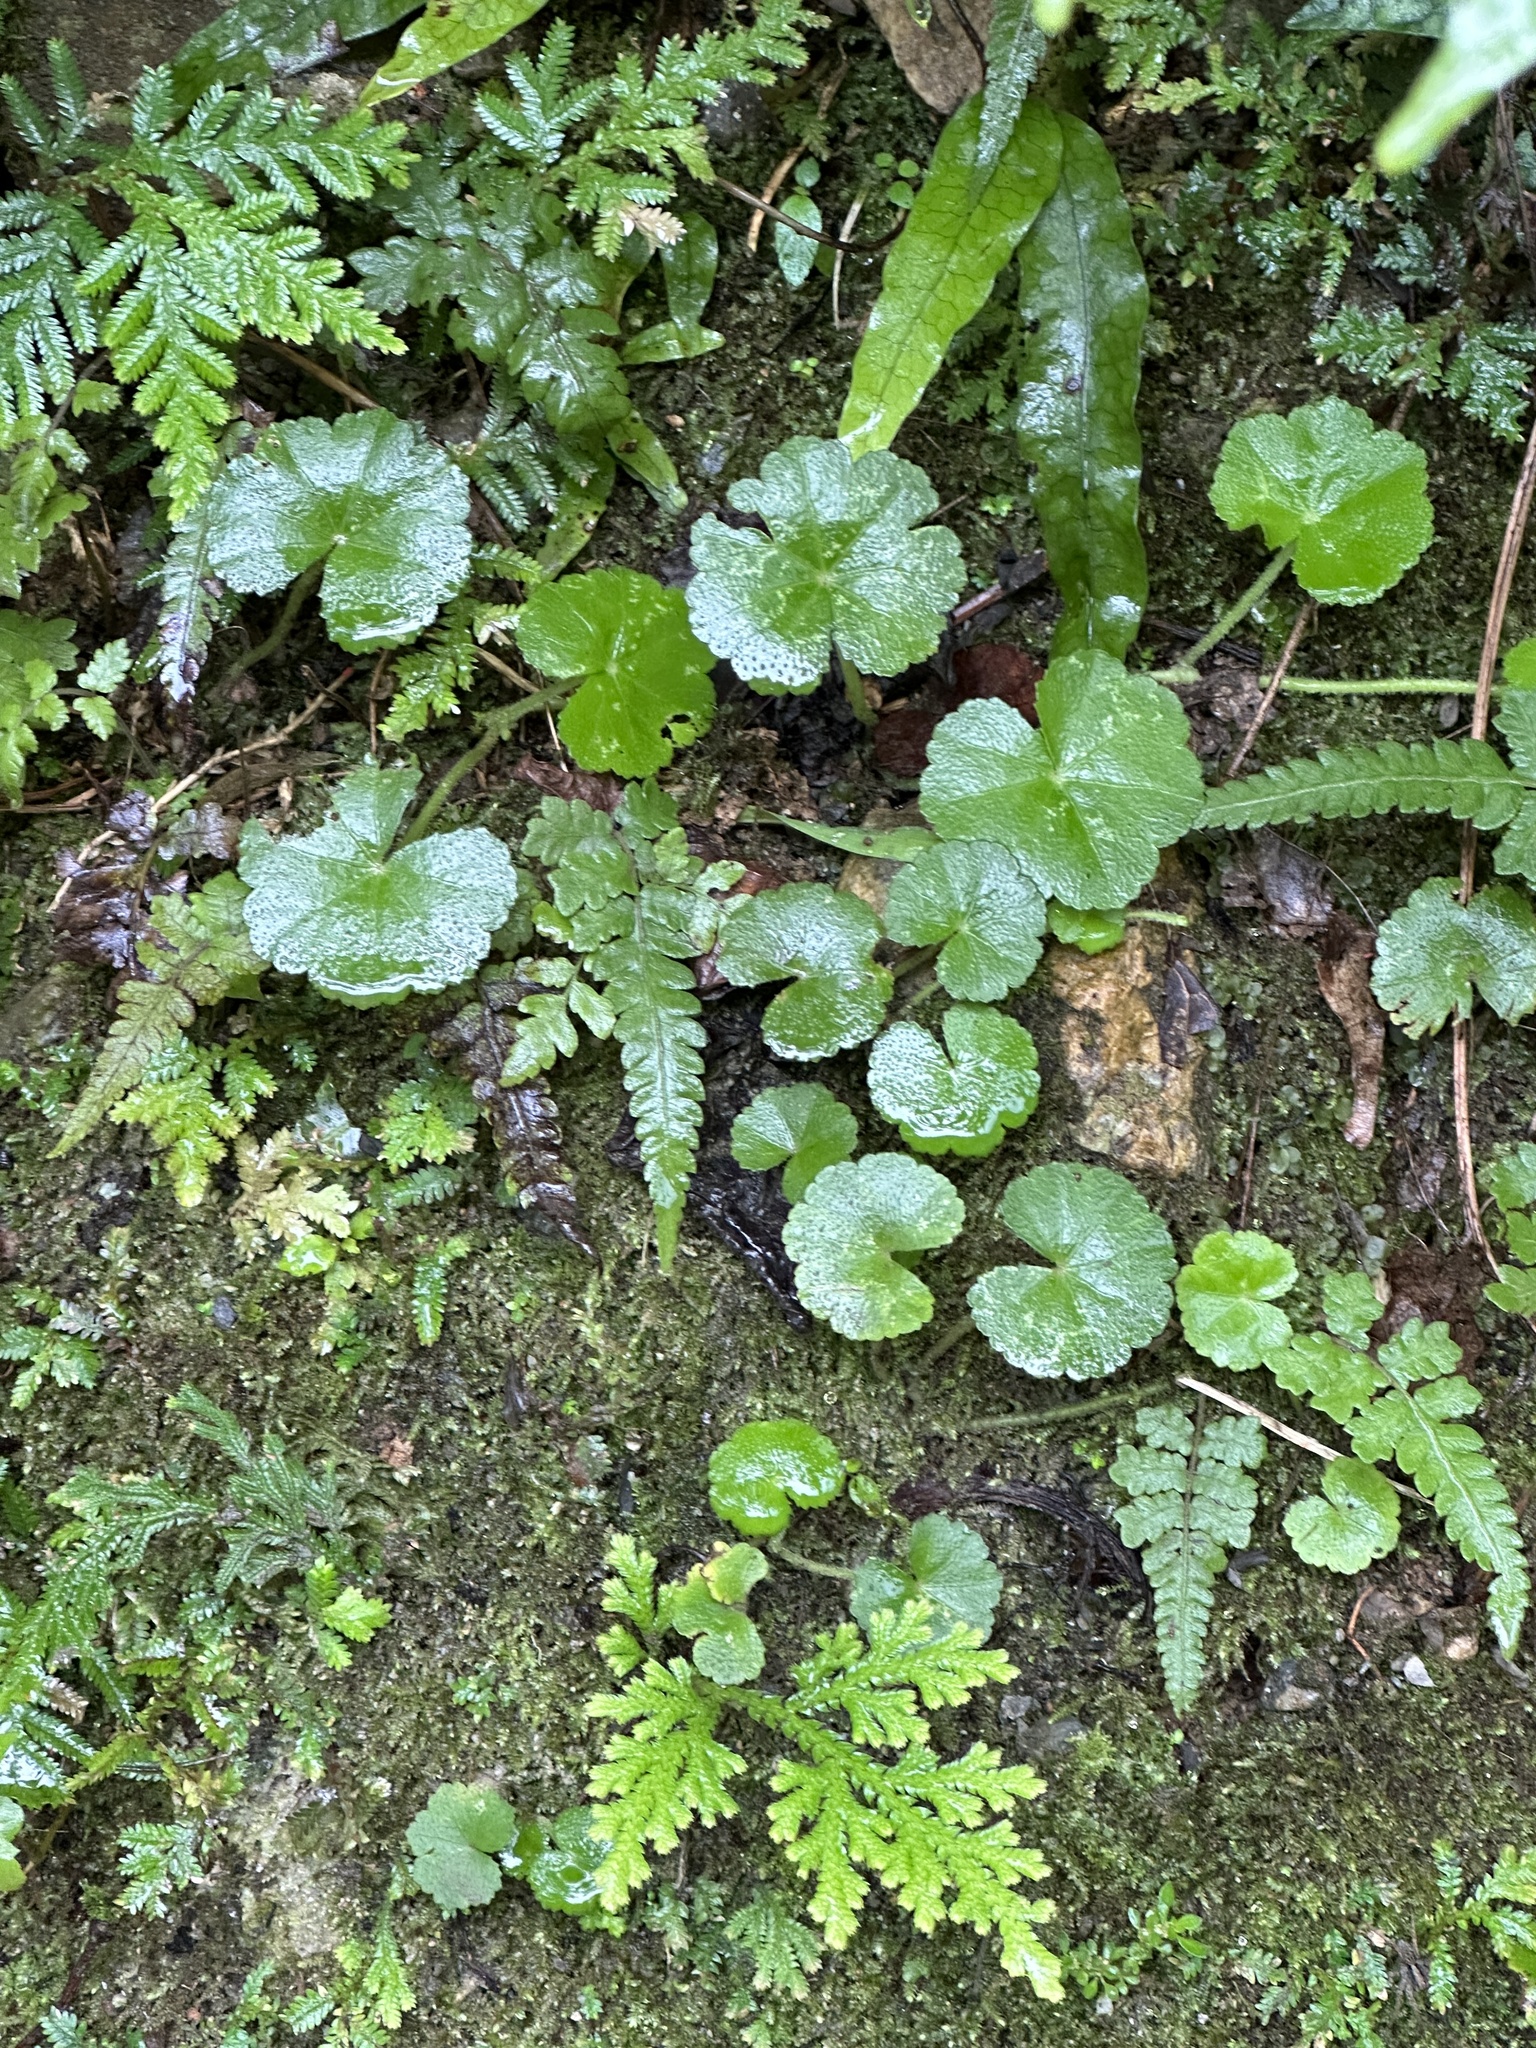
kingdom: Plantae
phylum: Tracheophyta
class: Magnoliopsida
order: Apiales
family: Araliaceae
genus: Hydrocotyle
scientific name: Hydrocotyle nepalensis
